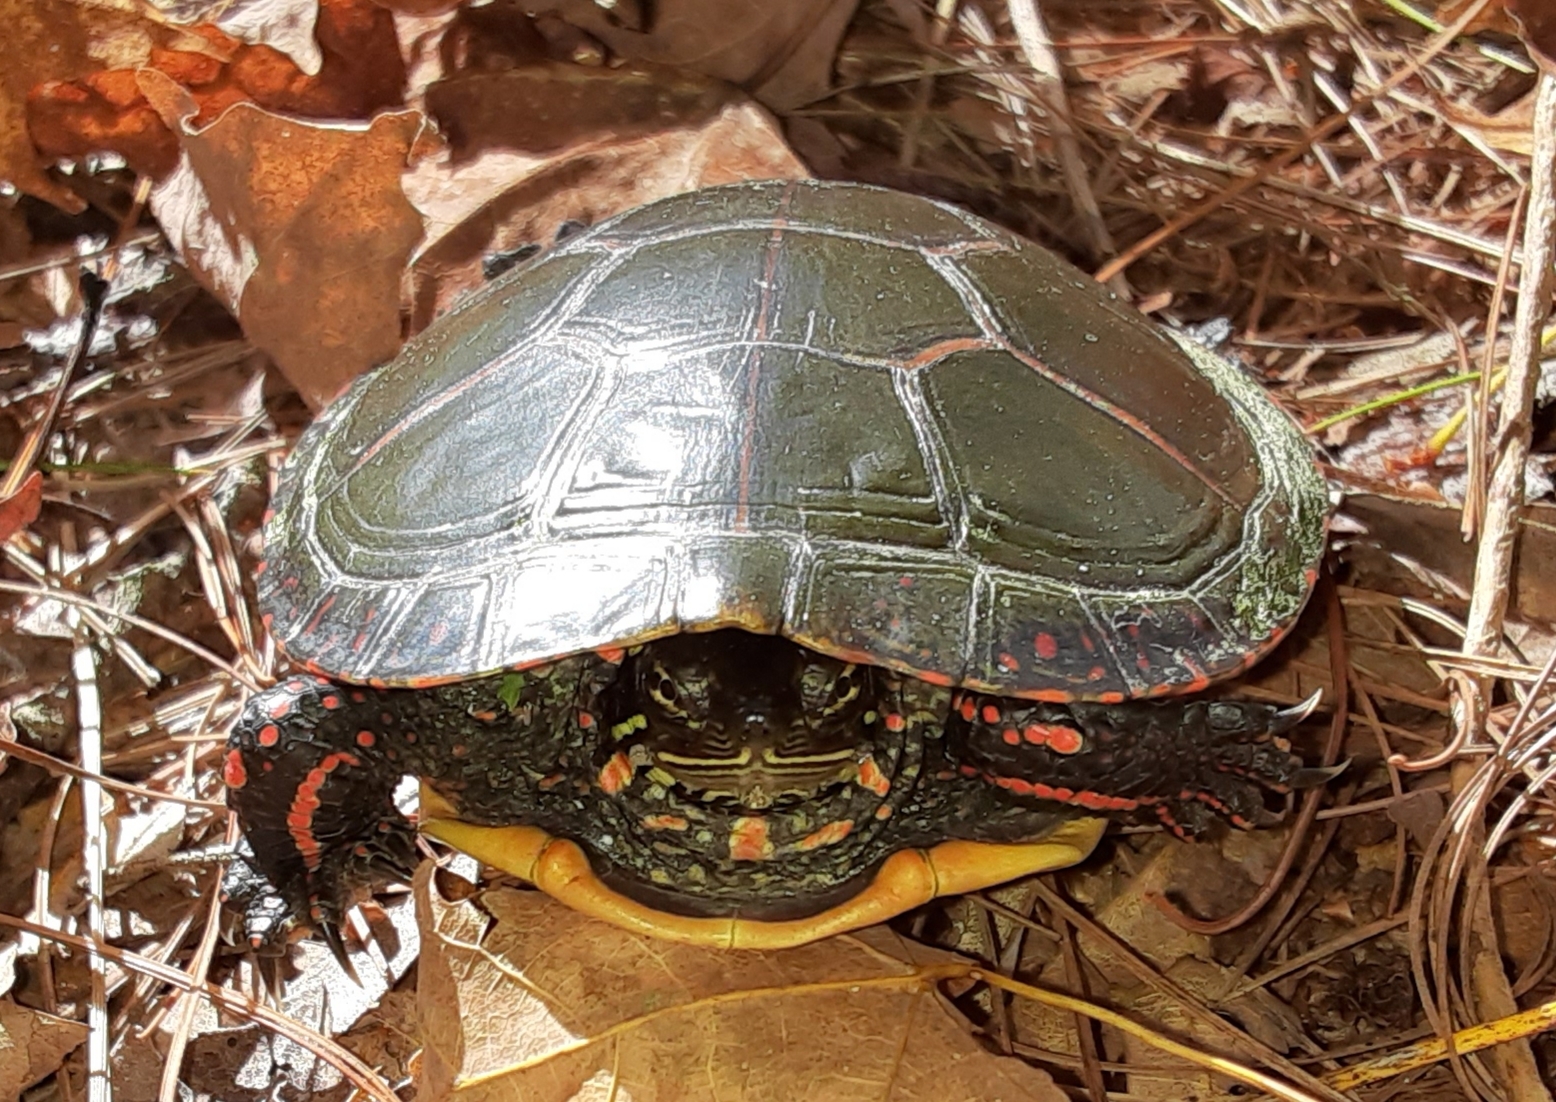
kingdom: Animalia
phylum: Chordata
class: Testudines
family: Emydidae
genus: Chrysemys
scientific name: Chrysemys picta
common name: Painted turtle
